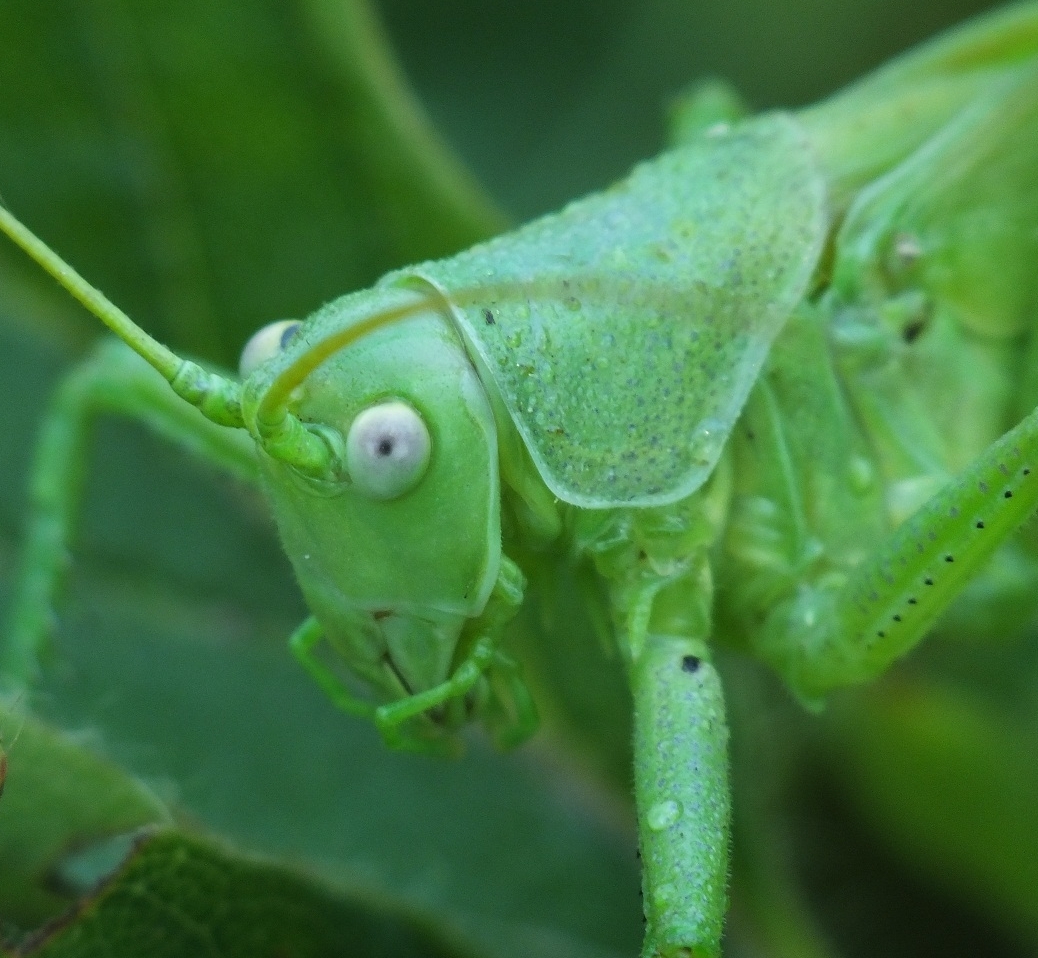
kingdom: Animalia
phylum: Arthropoda
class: Insecta
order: Orthoptera
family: Tettigoniidae
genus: Tettigonia
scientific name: Tettigonia caudata
